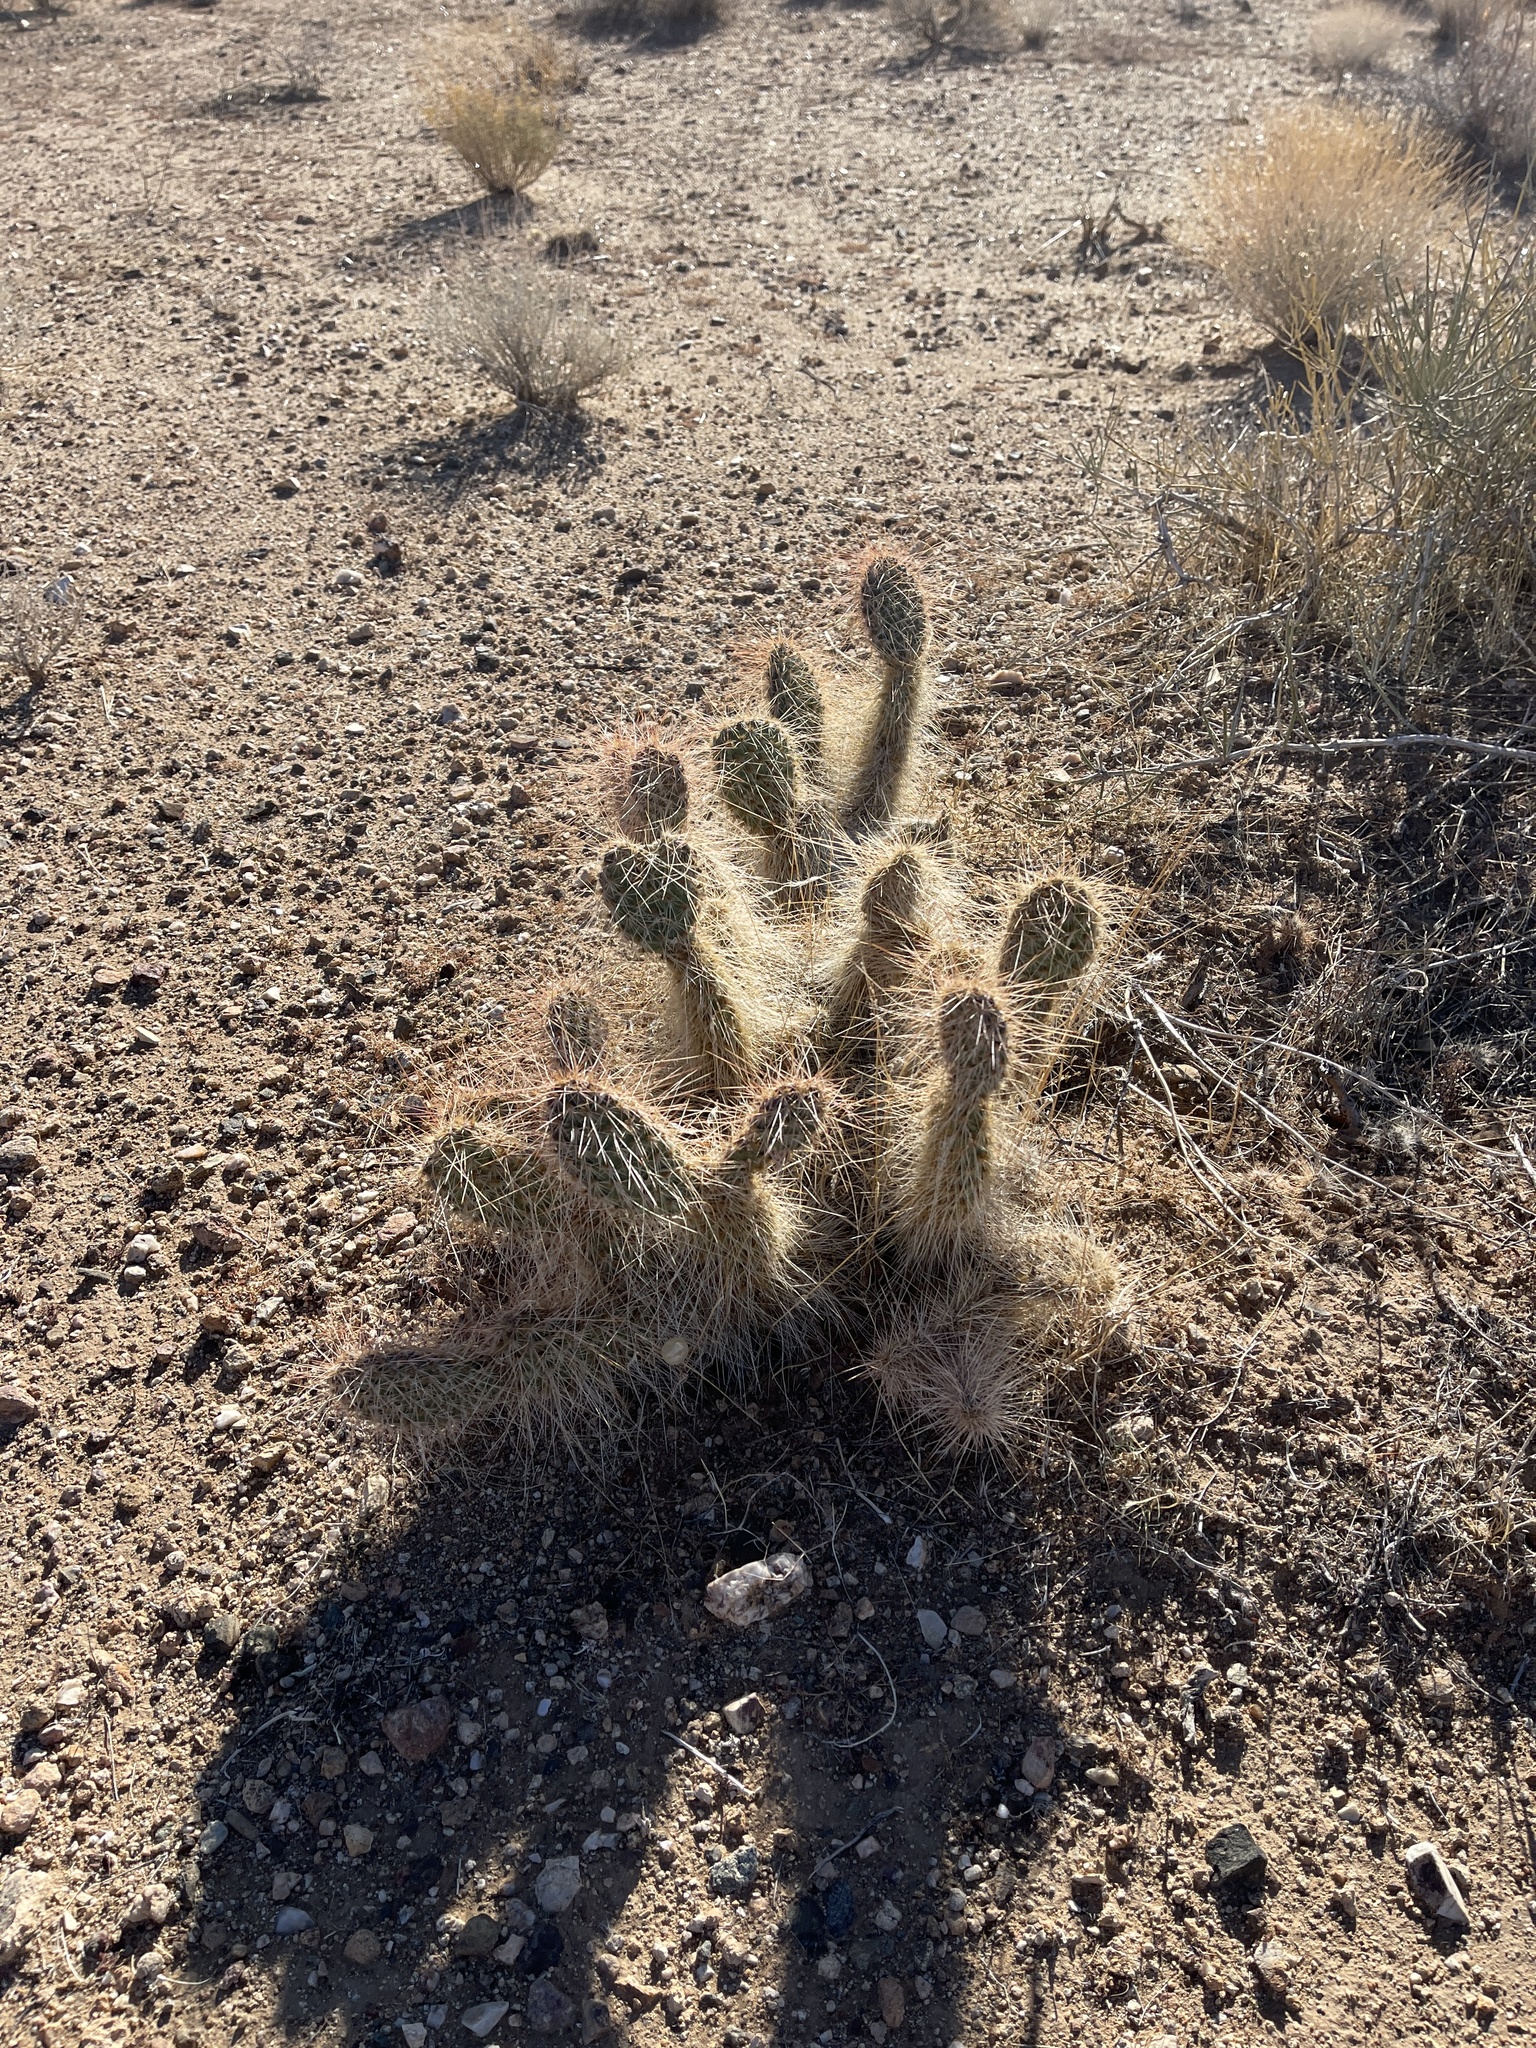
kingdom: Plantae
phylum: Tracheophyta
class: Magnoliopsida
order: Caryophyllales
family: Cactaceae
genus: Opuntia
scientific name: Opuntia polyacantha
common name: Plains prickly-pear
